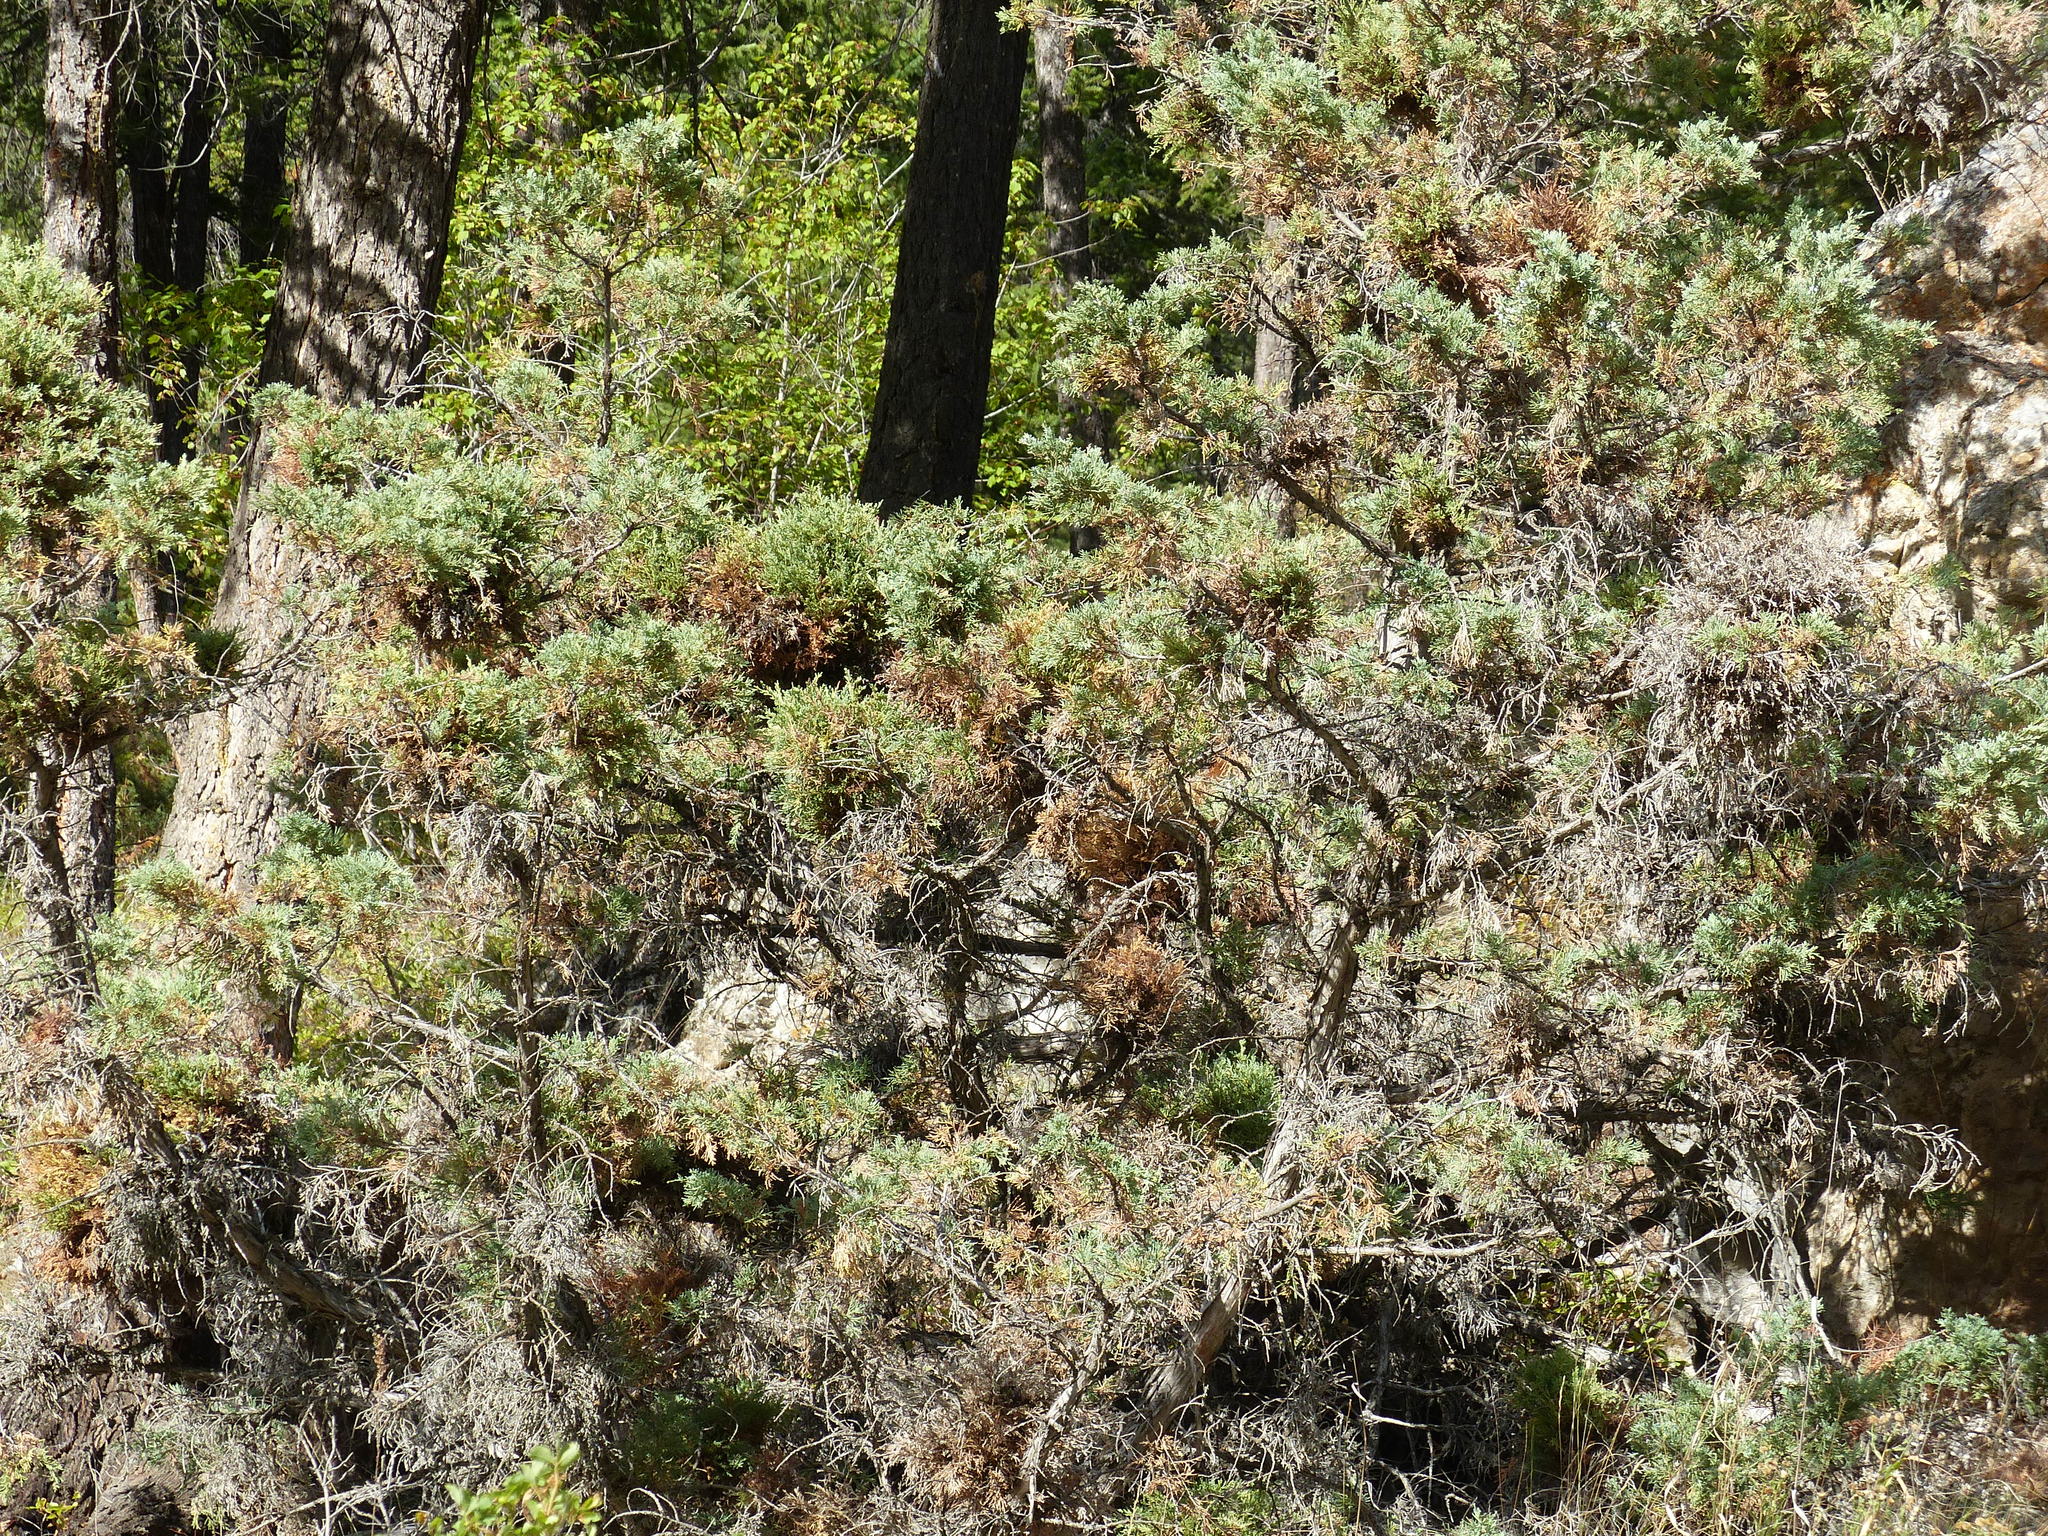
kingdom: Plantae
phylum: Tracheophyta
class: Pinopsida
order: Pinales
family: Cupressaceae
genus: Juniperus
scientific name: Juniperus scopulorum
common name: Rocky mountain juniper
